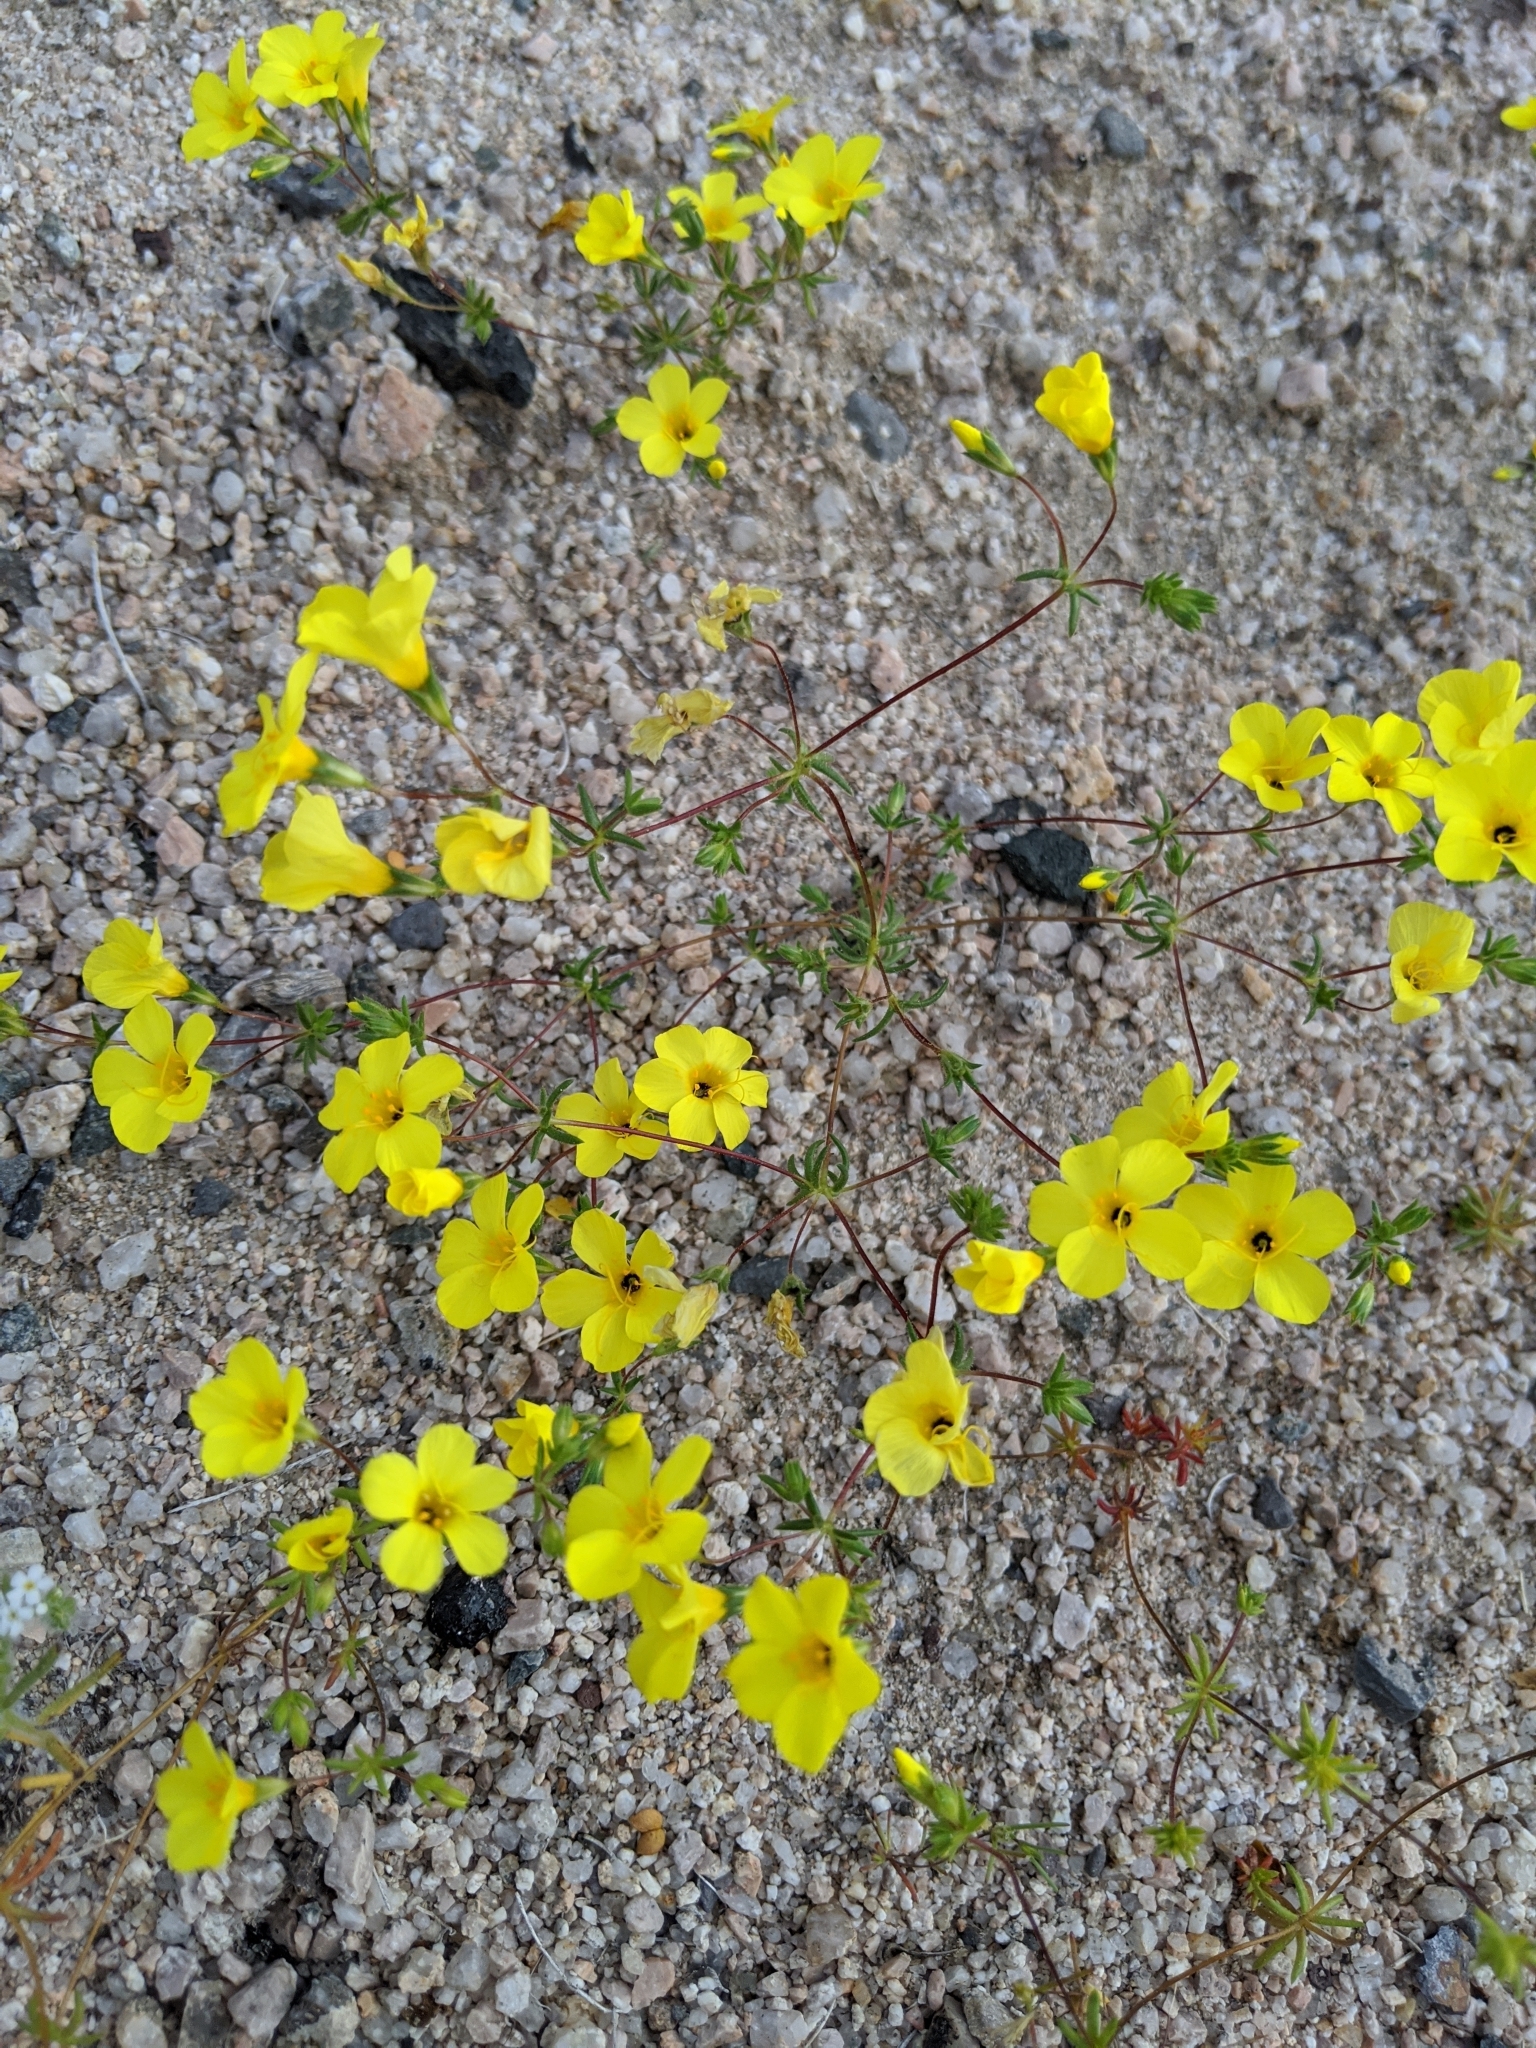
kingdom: Plantae
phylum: Tracheophyta
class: Magnoliopsida
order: Ericales
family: Polemoniaceae
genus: Leptosiphon
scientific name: Leptosiphon chrysanthus
